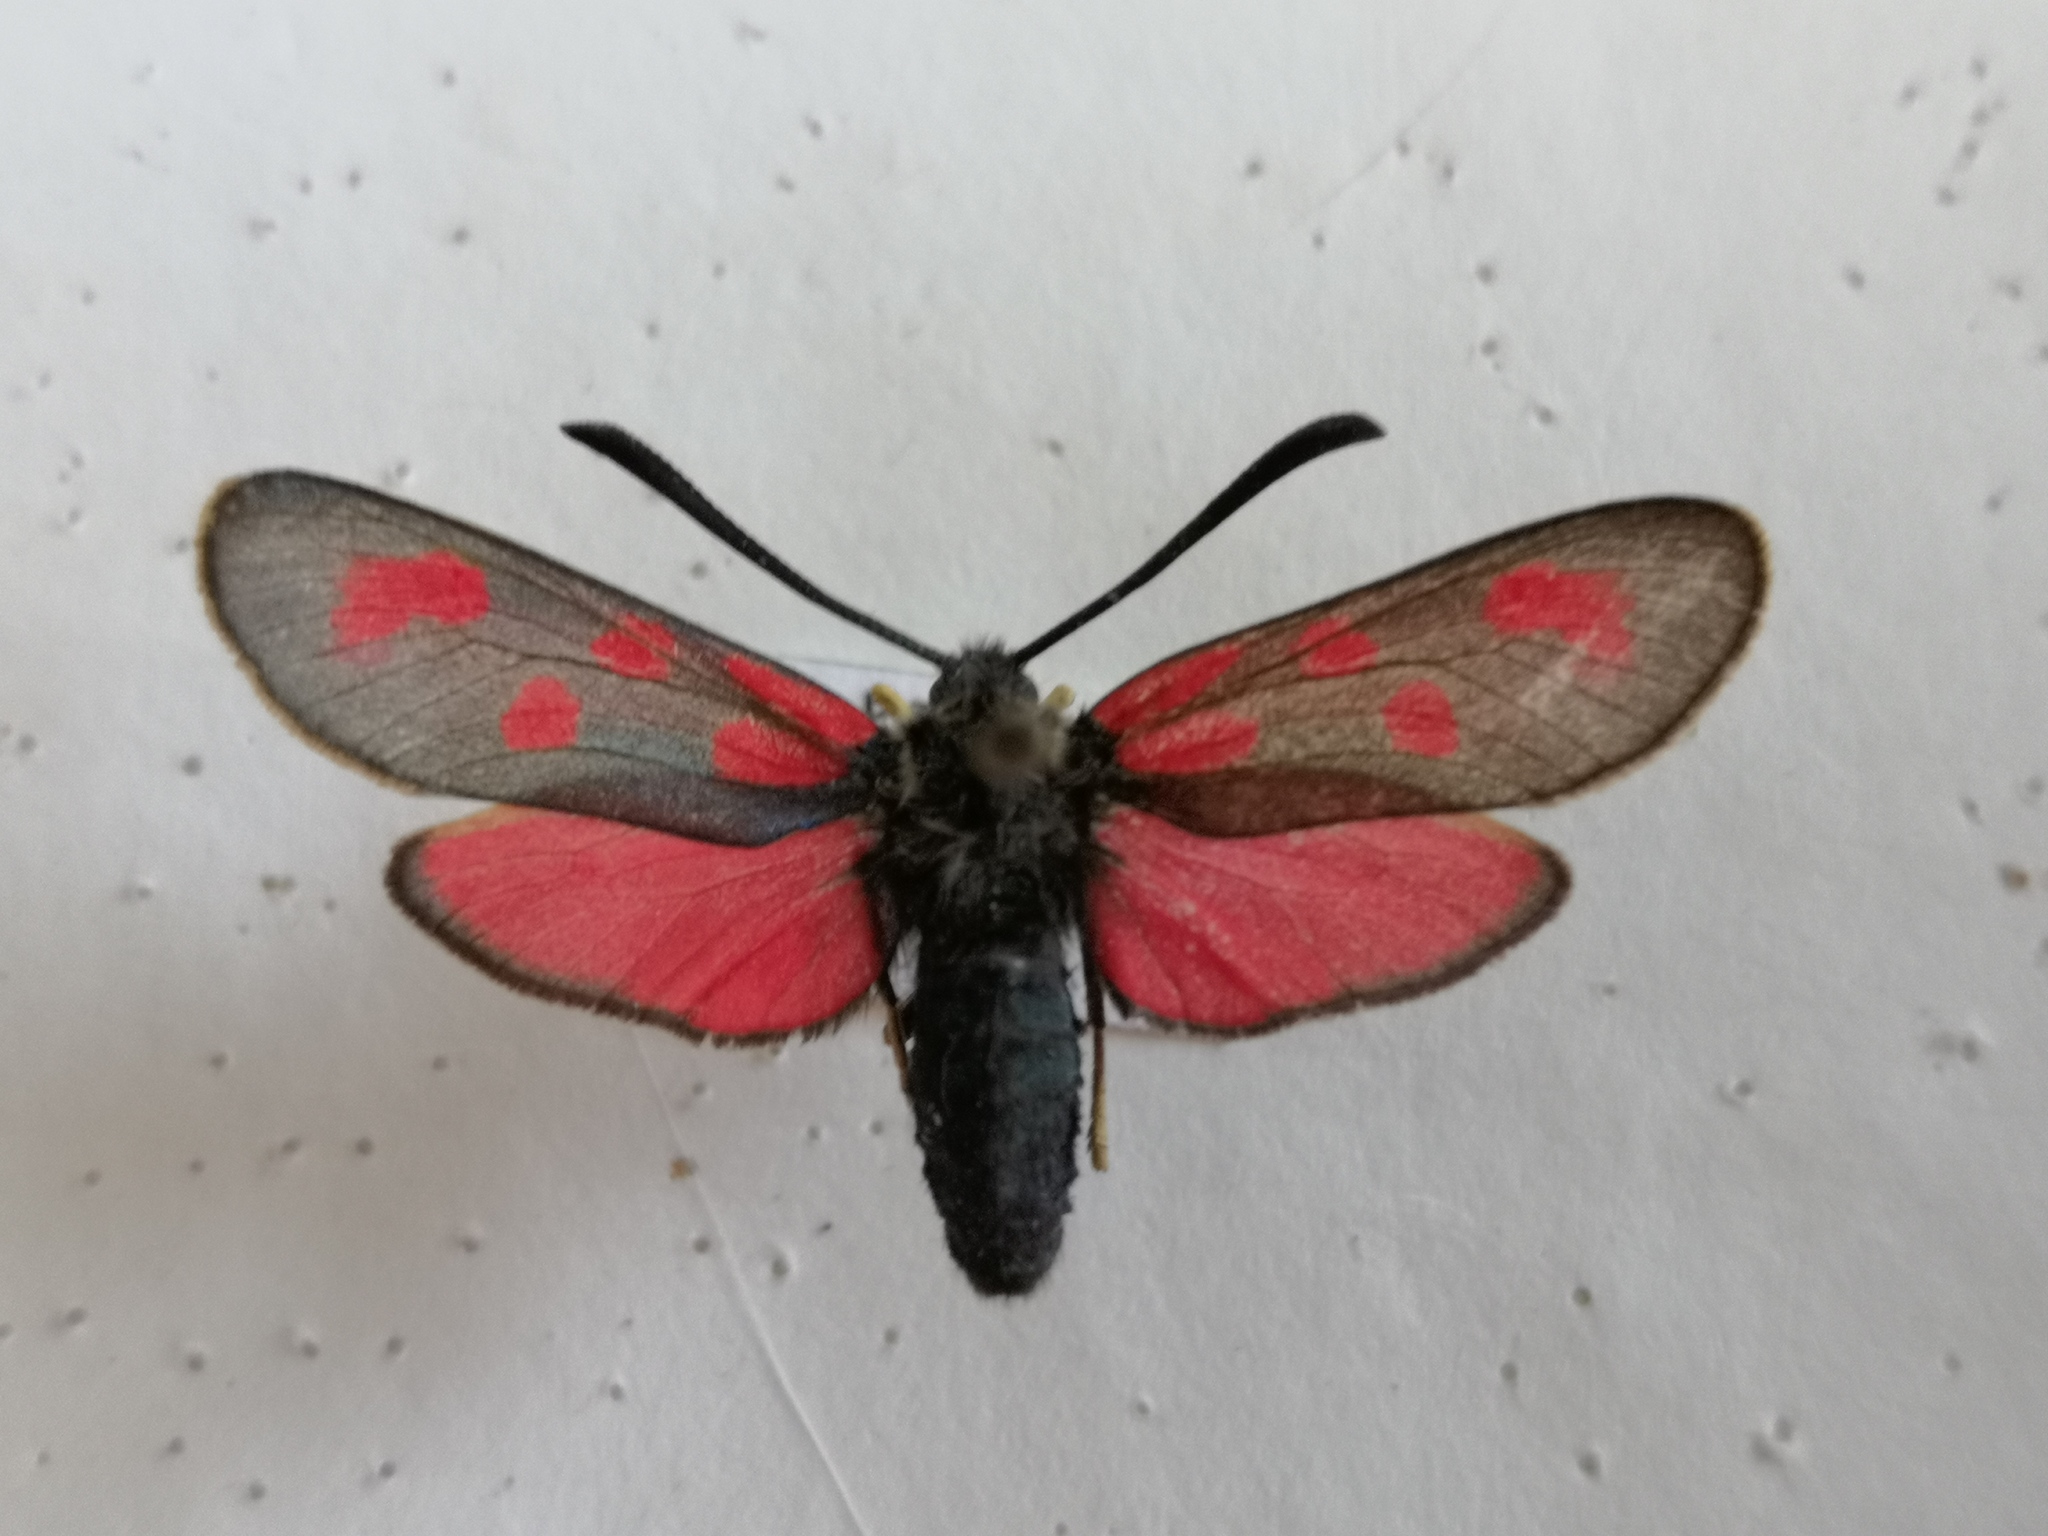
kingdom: Animalia
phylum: Arthropoda
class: Insecta
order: Lepidoptera
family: Zygaenidae
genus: Zygaena
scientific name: Zygaena loti
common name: Slender scotch burnet
